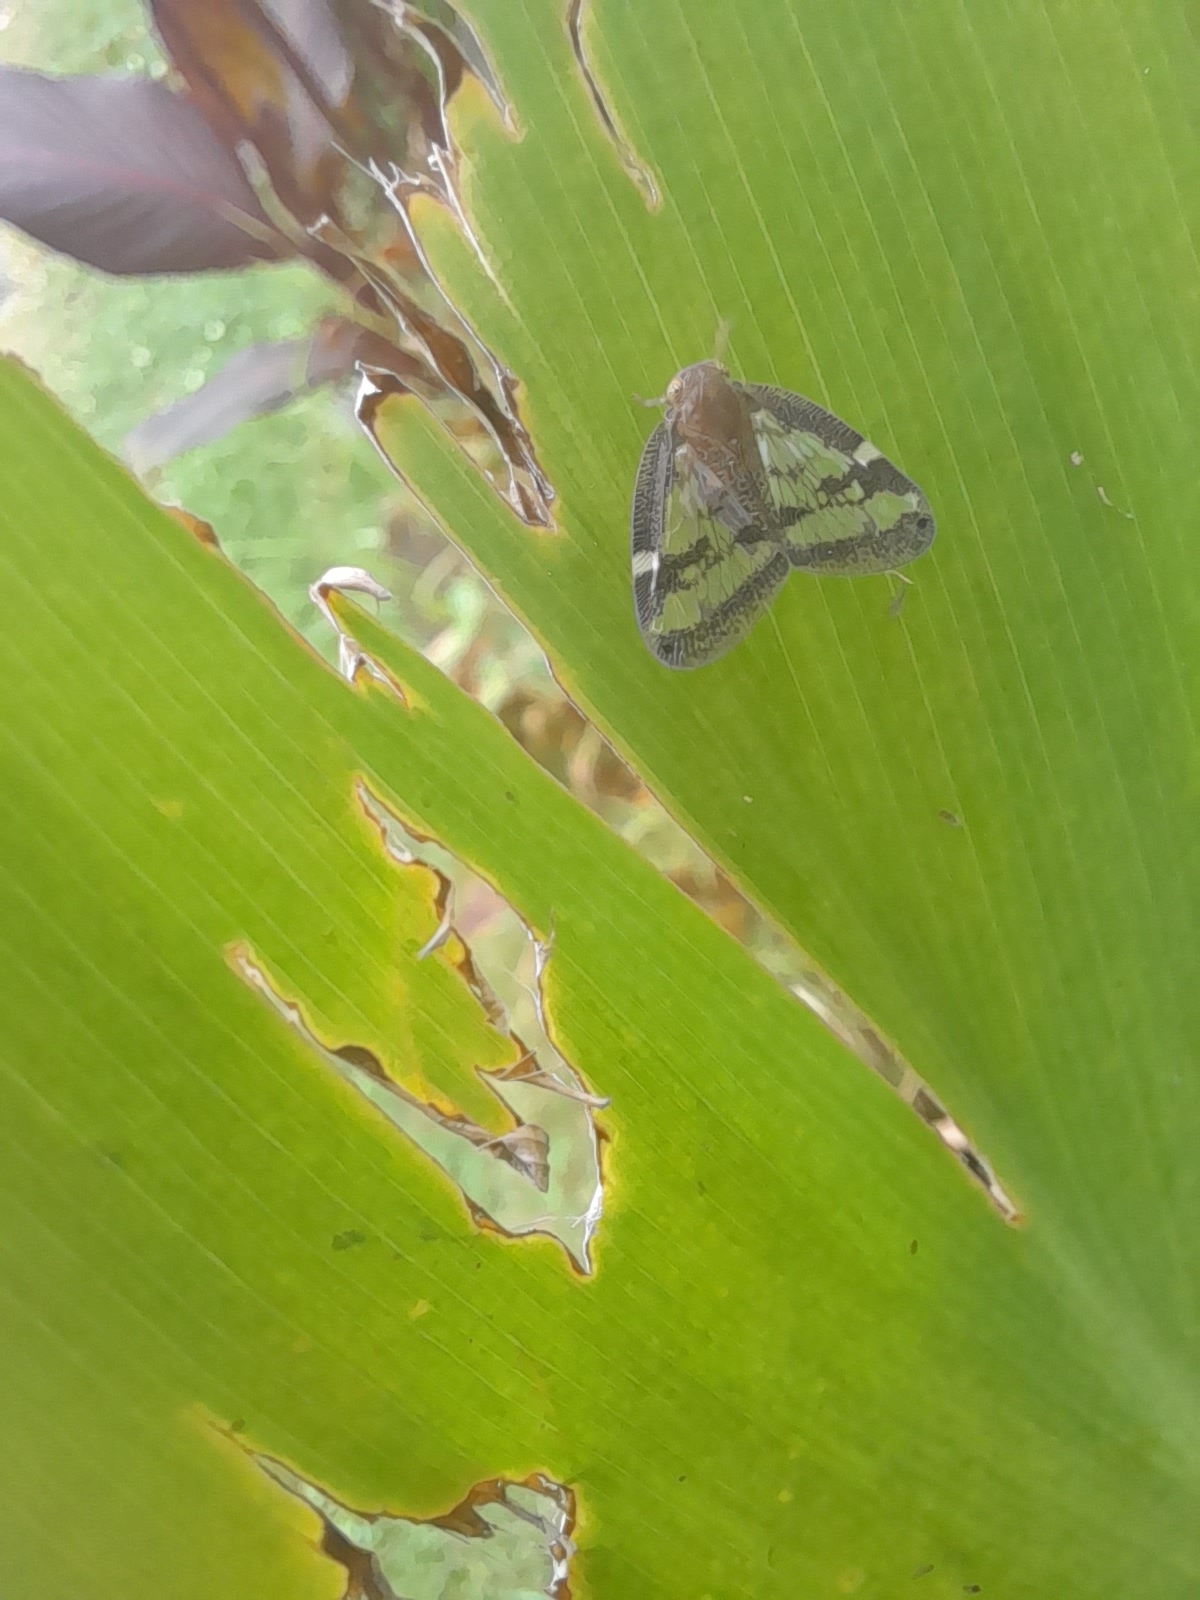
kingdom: Animalia
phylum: Arthropoda
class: Insecta
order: Hemiptera
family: Ricaniidae
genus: Scolypopa
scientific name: Scolypopa australis
